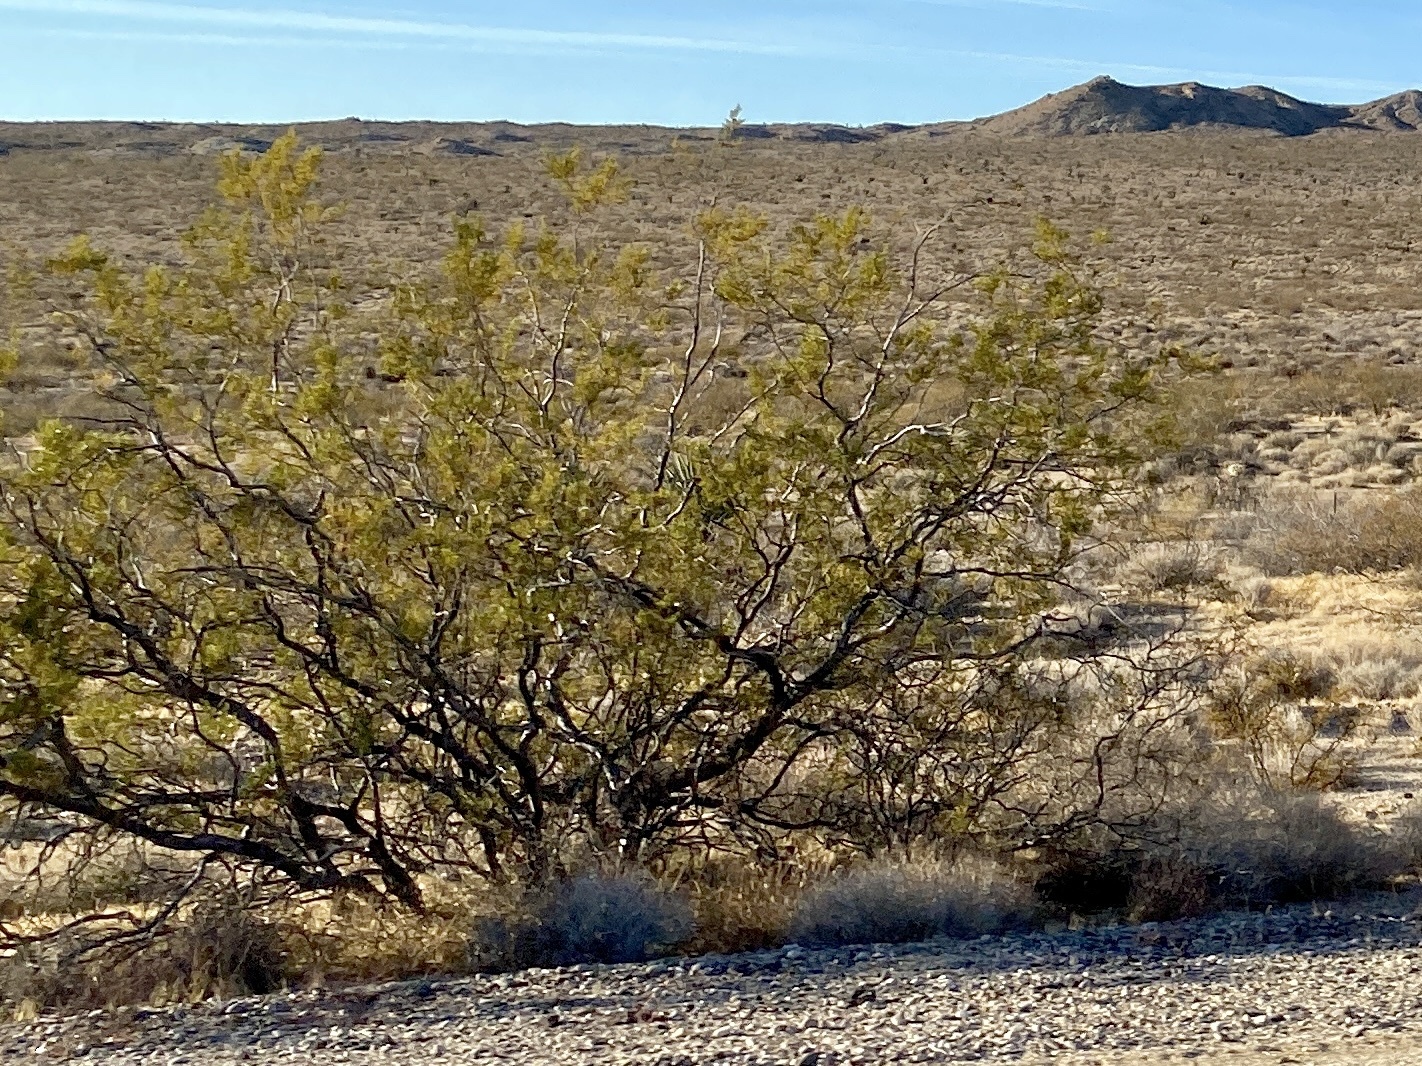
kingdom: Plantae
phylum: Tracheophyta
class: Magnoliopsida
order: Zygophyllales
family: Zygophyllaceae
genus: Larrea
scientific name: Larrea tridentata
